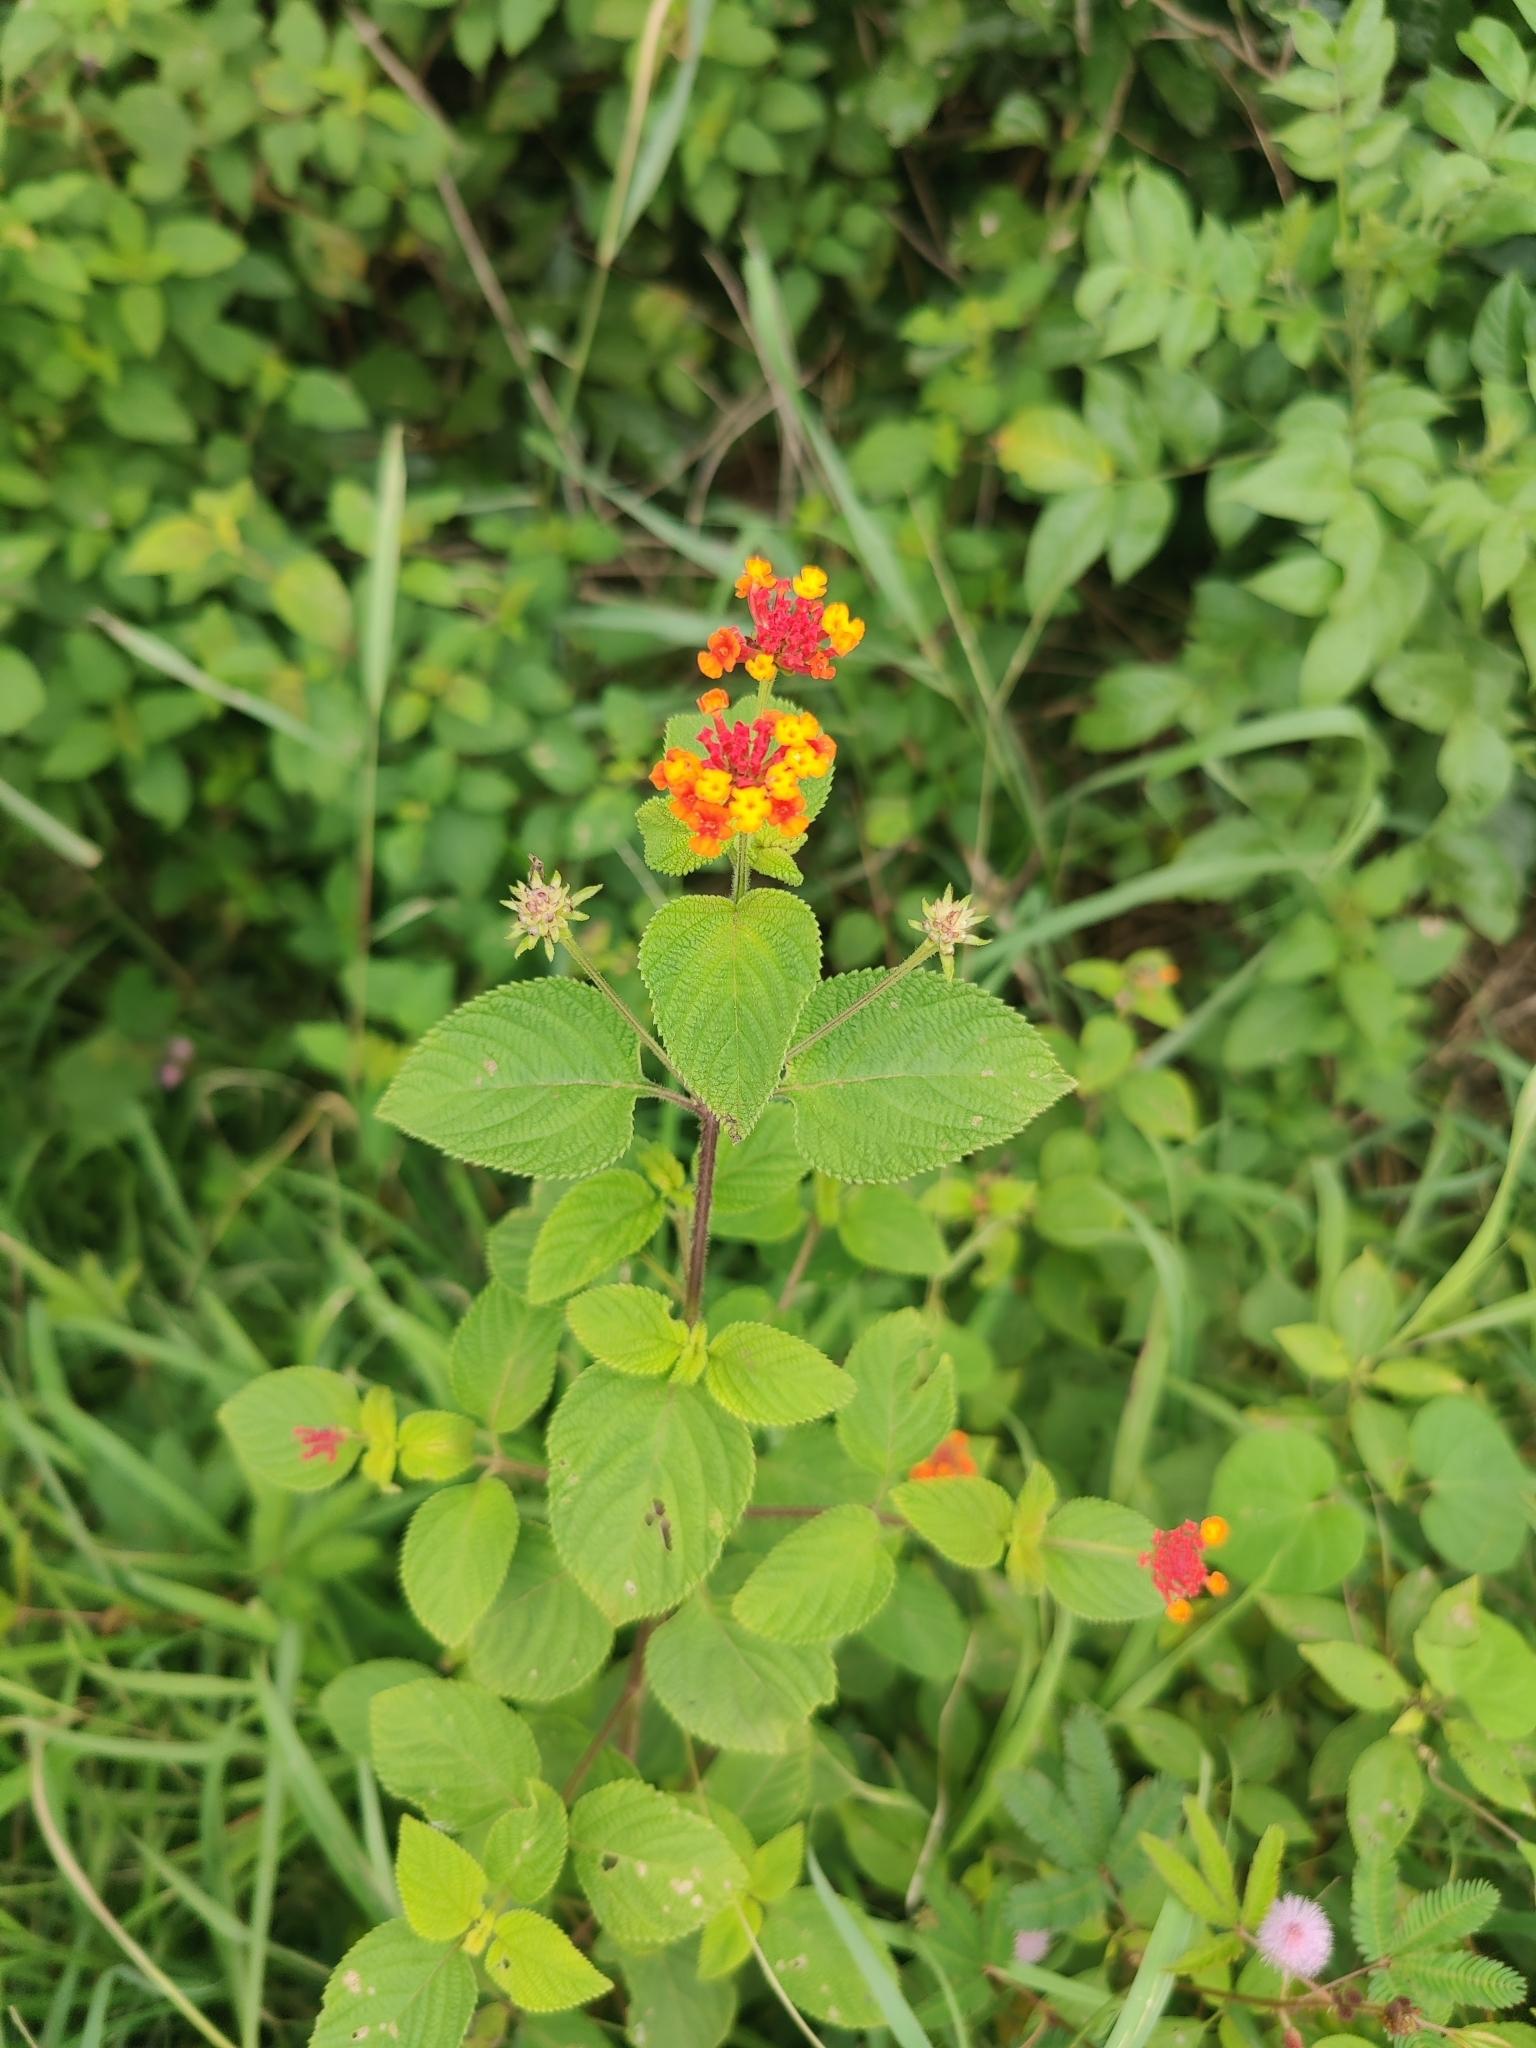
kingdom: Plantae
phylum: Tracheophyta
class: Magnoliopsida
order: Lamiales
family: Verbenaceae
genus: Lantana
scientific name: Lantana camara
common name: Lantana
